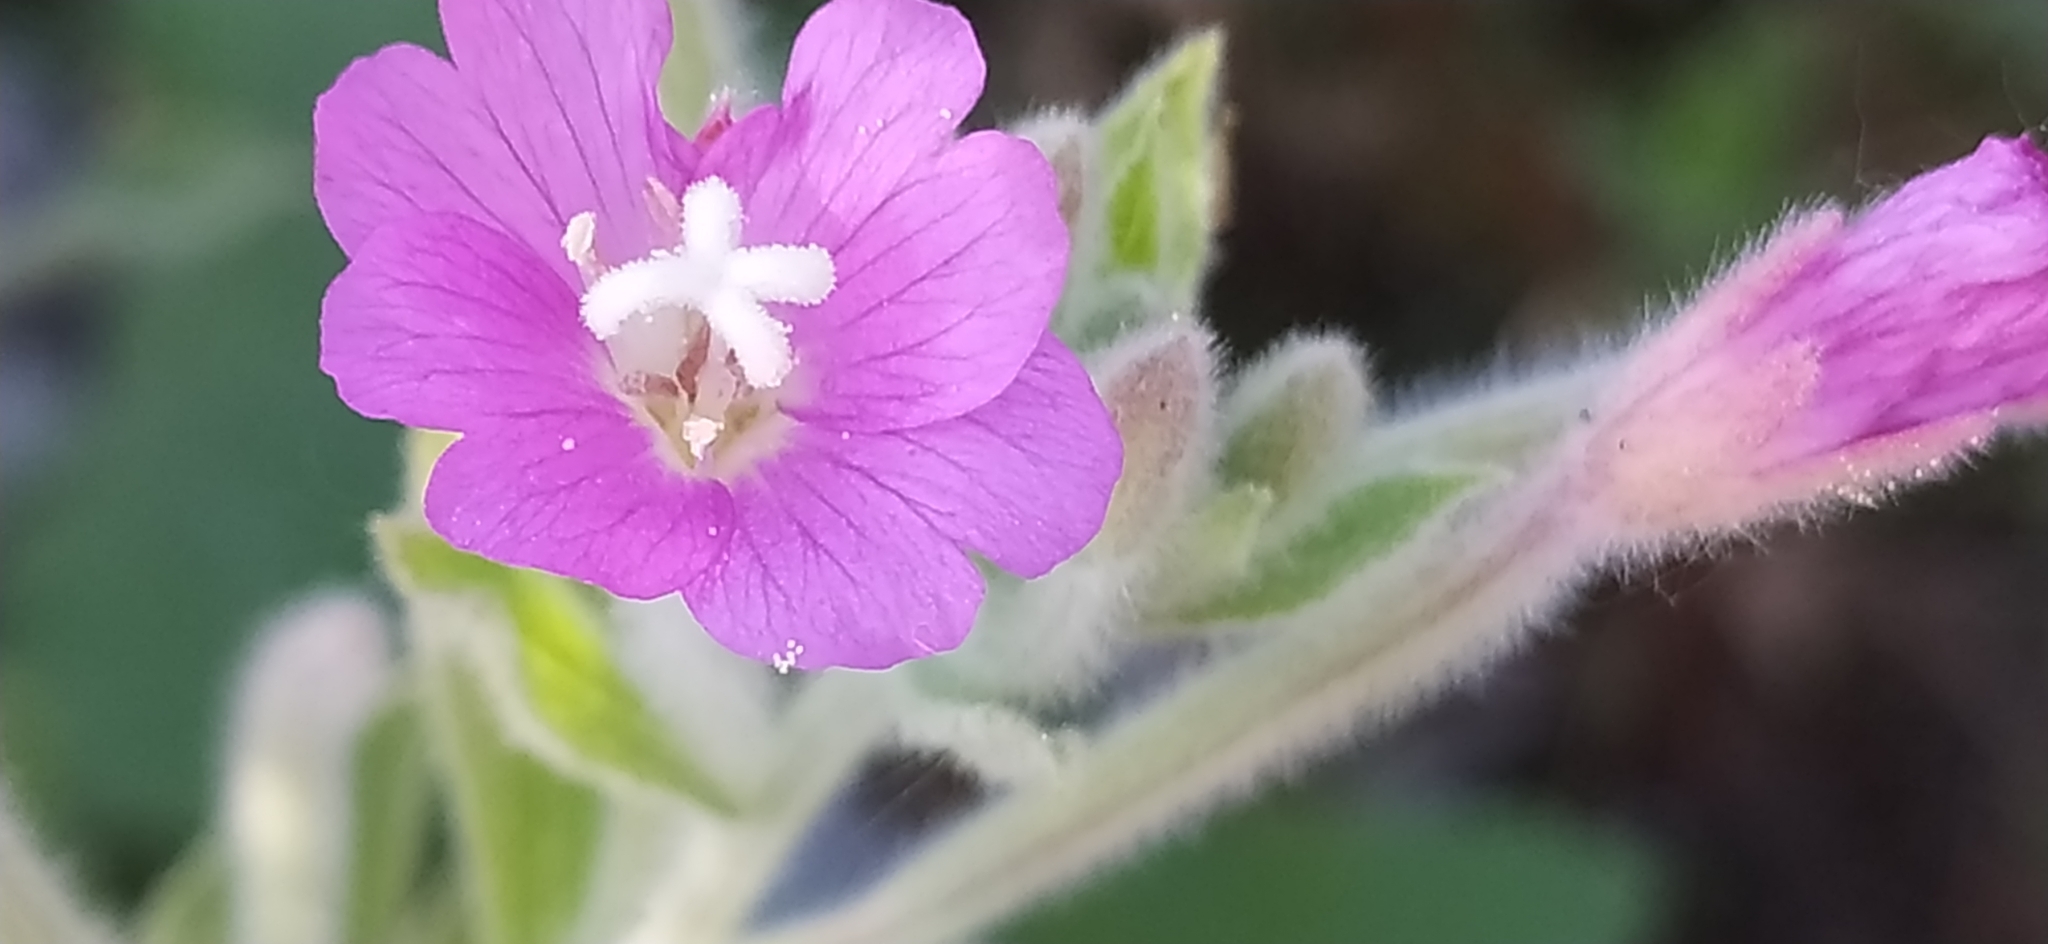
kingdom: Plantae
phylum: Tracheophyta
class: Magnoliopsida
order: Myrtales
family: Onagraceae
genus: Epilobium
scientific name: Epilobium hirsutum
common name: Great willowherb
